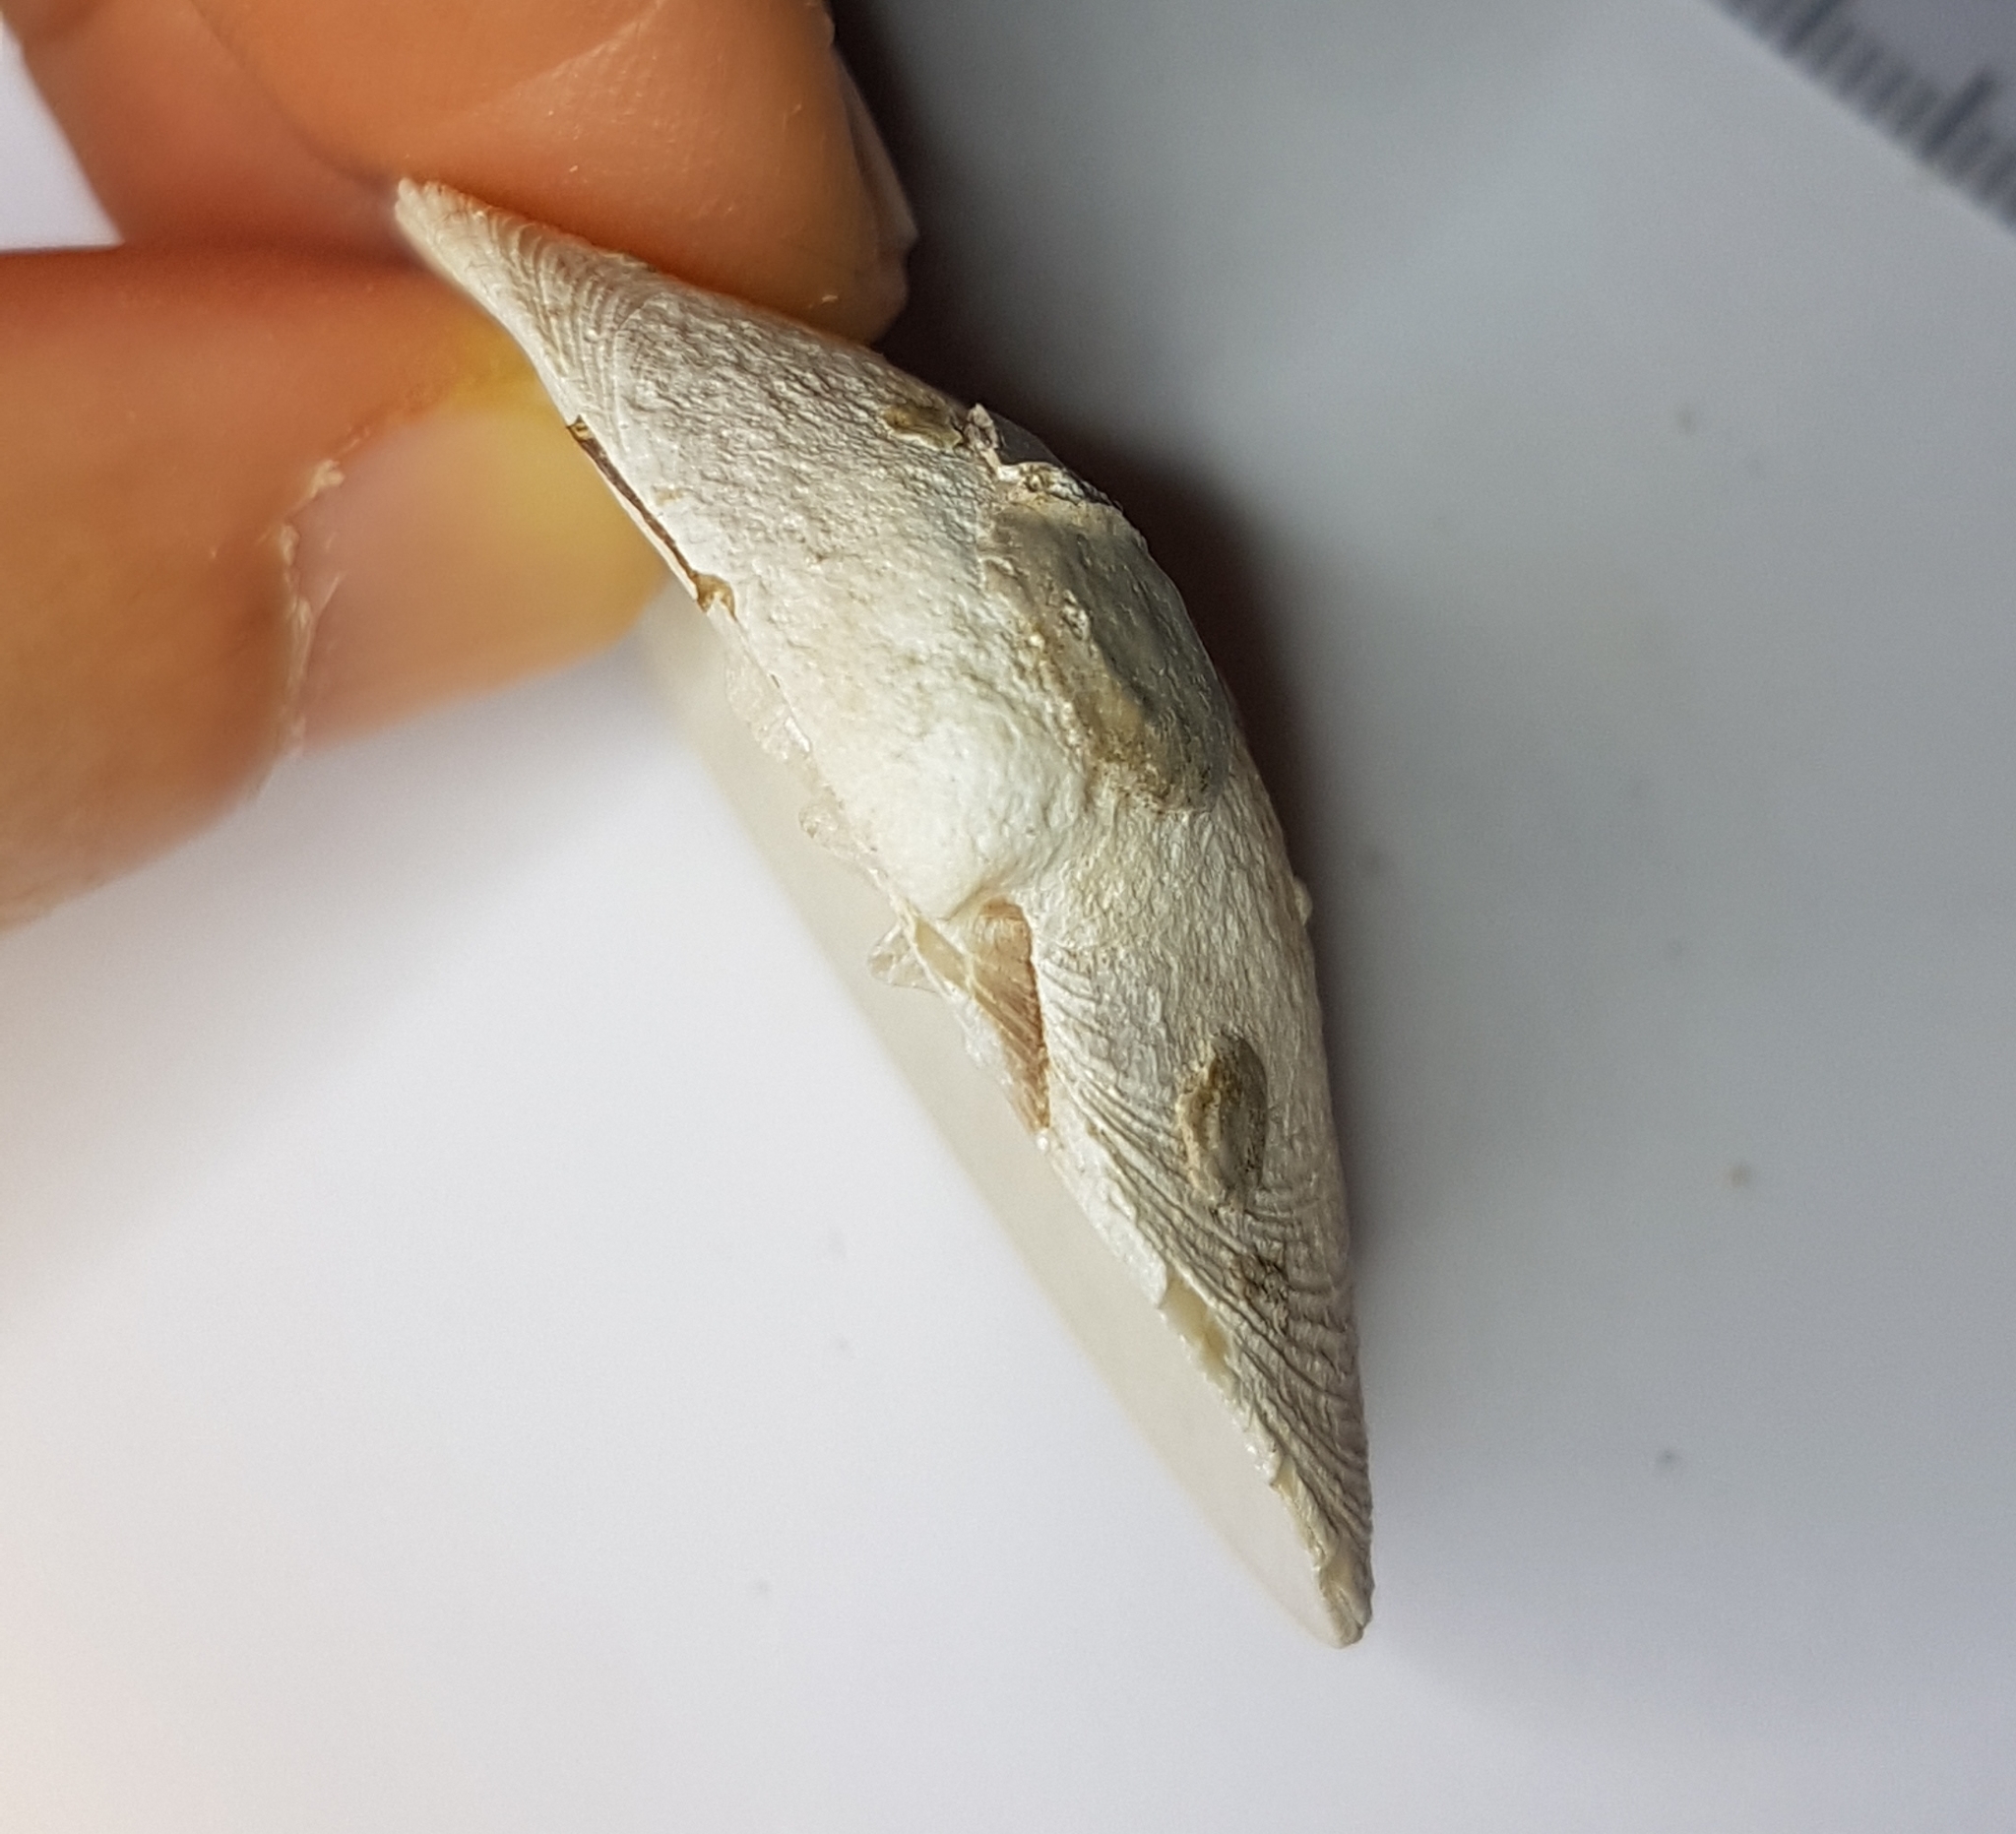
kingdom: Animalia
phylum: Mollusca
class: Bivalvia
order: Venerida
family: Veneridae
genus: Dosinia
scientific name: Dosinia exoleta
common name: Rayed artemis
